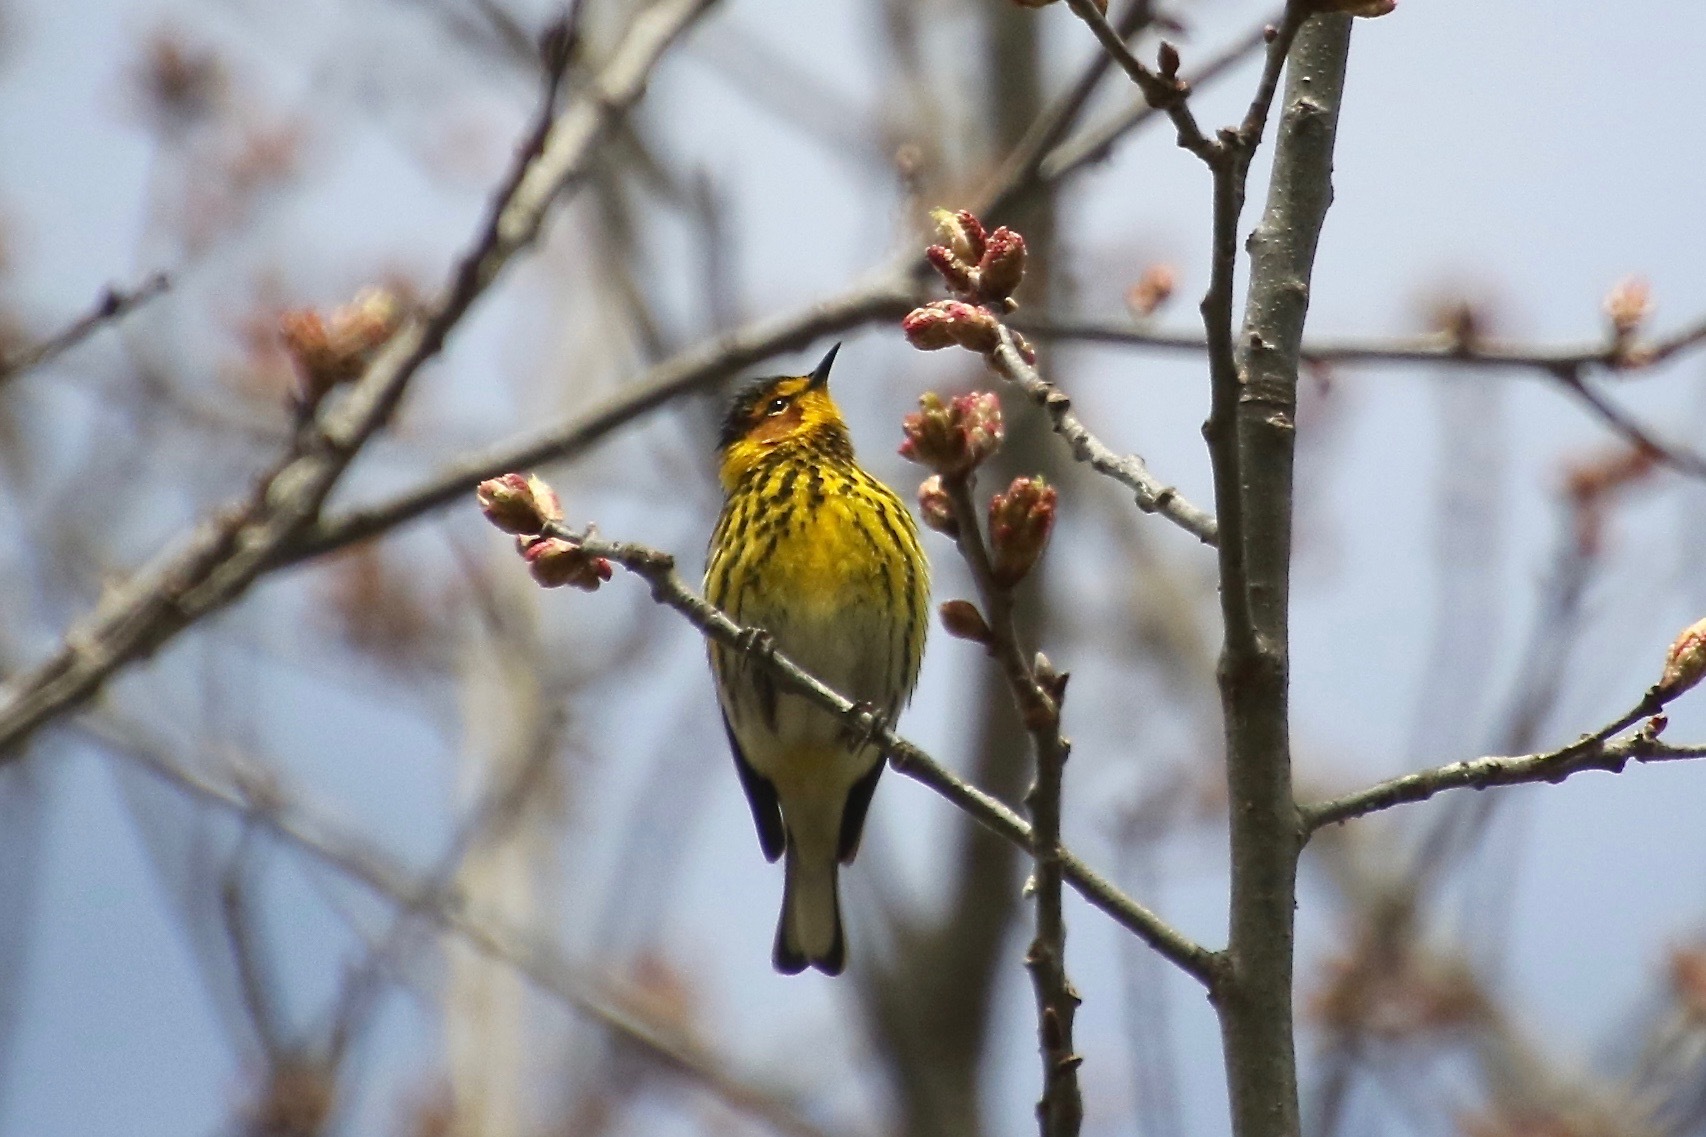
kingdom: Animalia
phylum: Chordata
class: Aves
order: Passeriformes
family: Parulidae
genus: Setophaga
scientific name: Setophaga tigrina
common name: Cape may warbler
